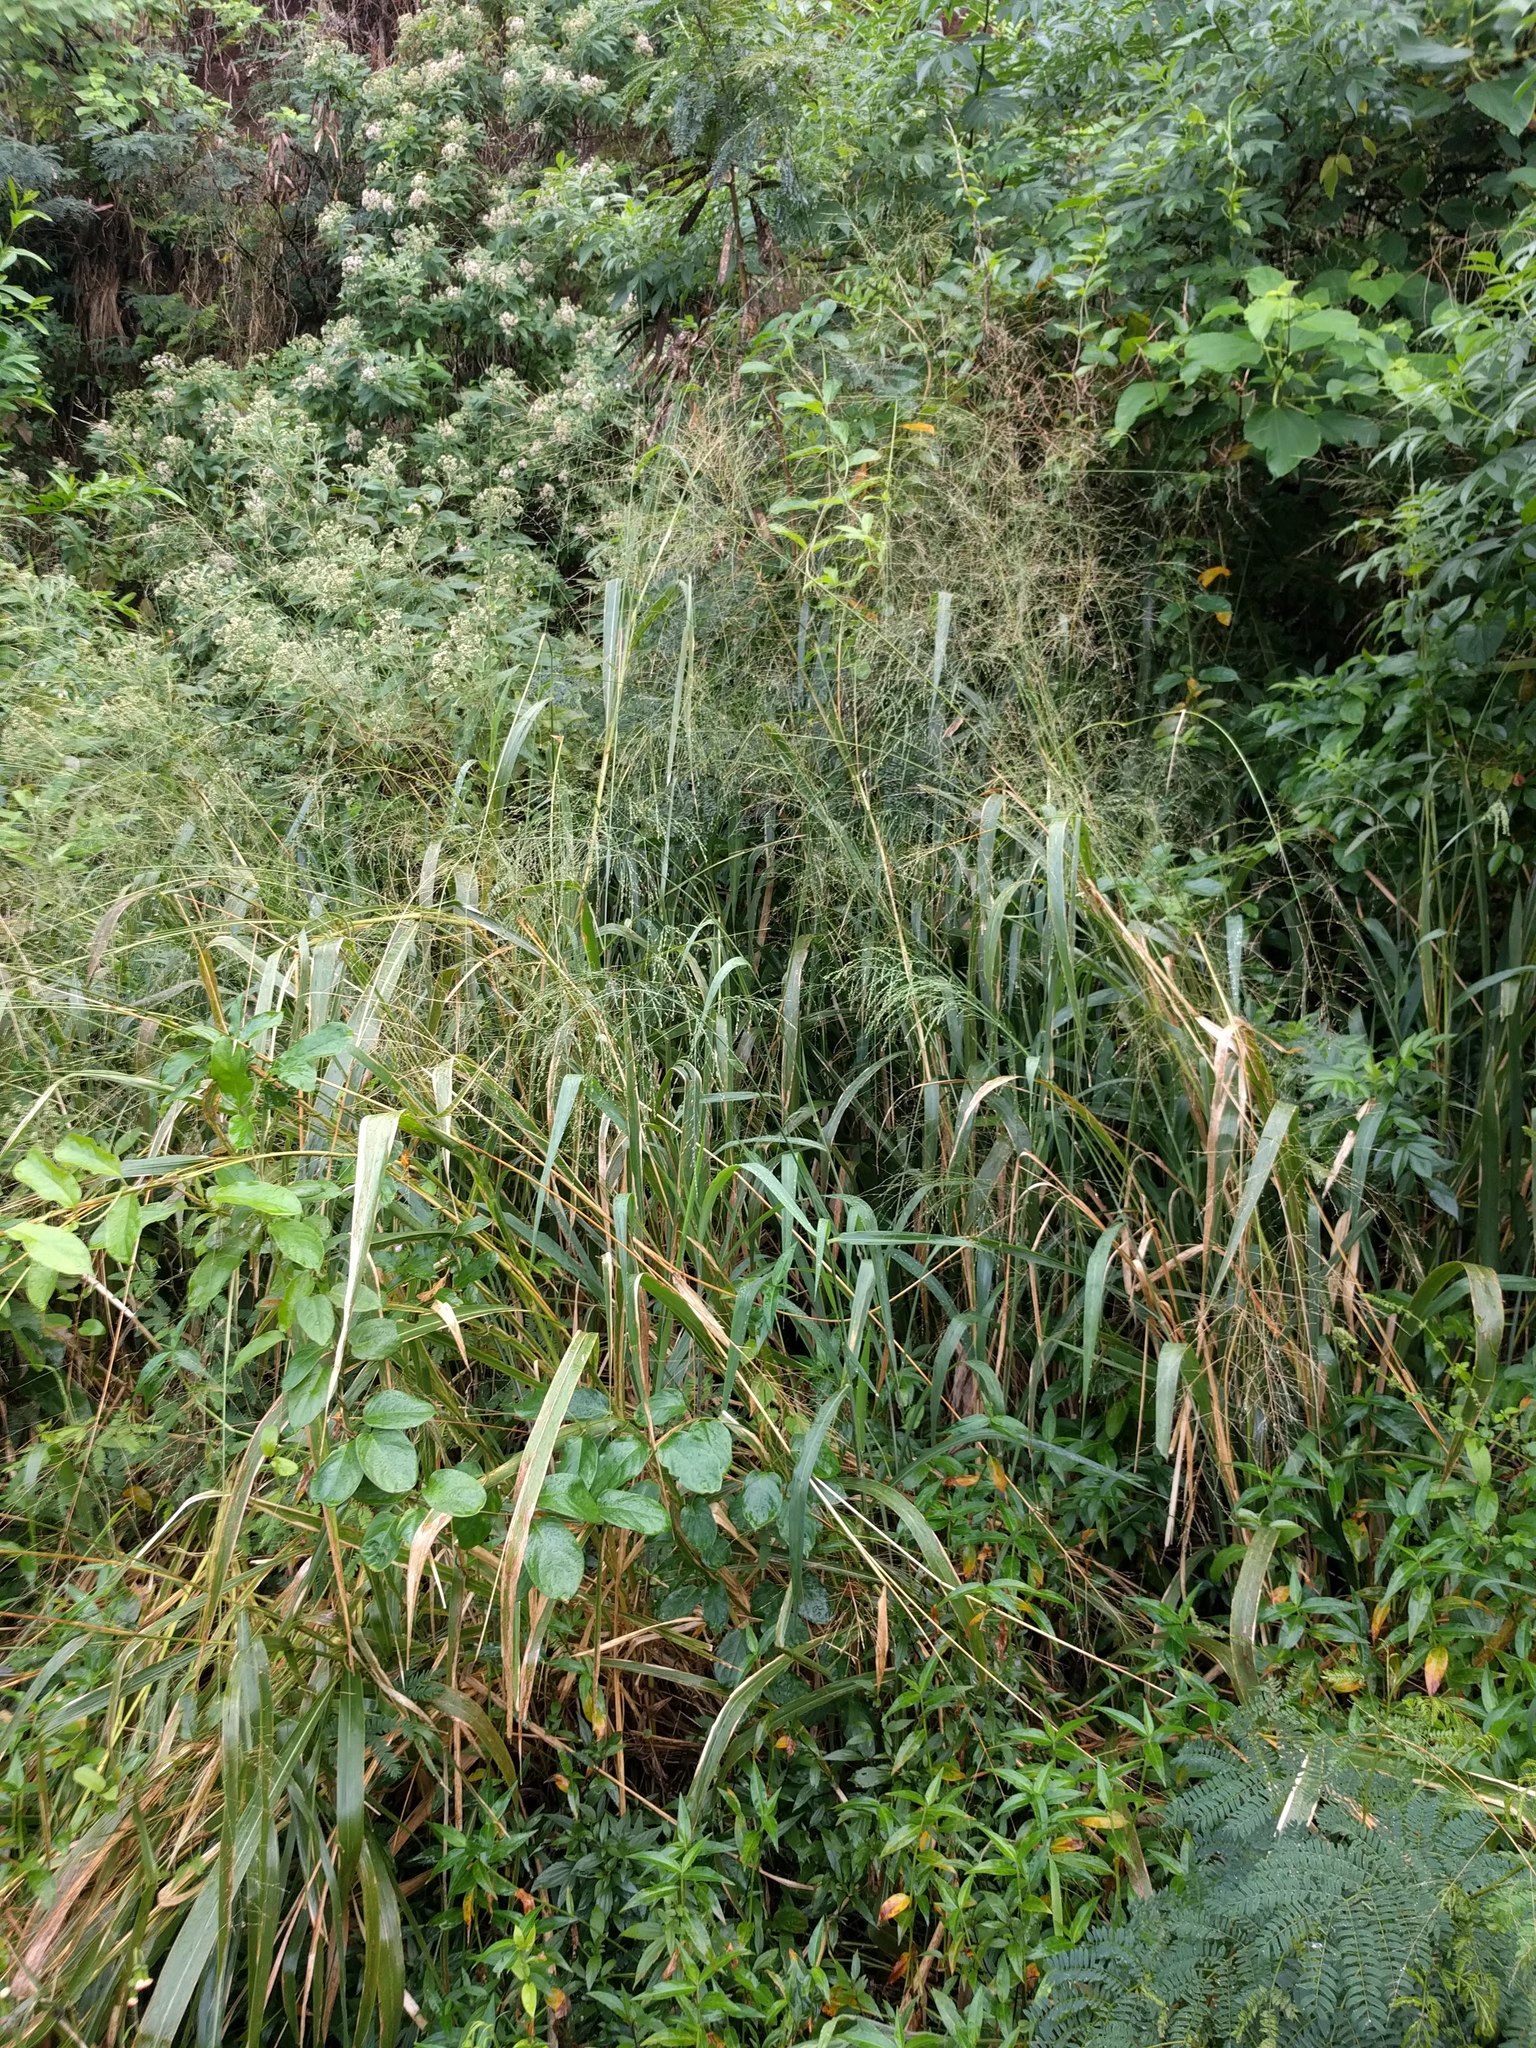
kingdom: Plantae
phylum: Tracheophyta
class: Liliopsida
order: Poales
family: Poaceae
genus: Megathyrsus
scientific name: Megathyrsus maximus
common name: Guineagrass
